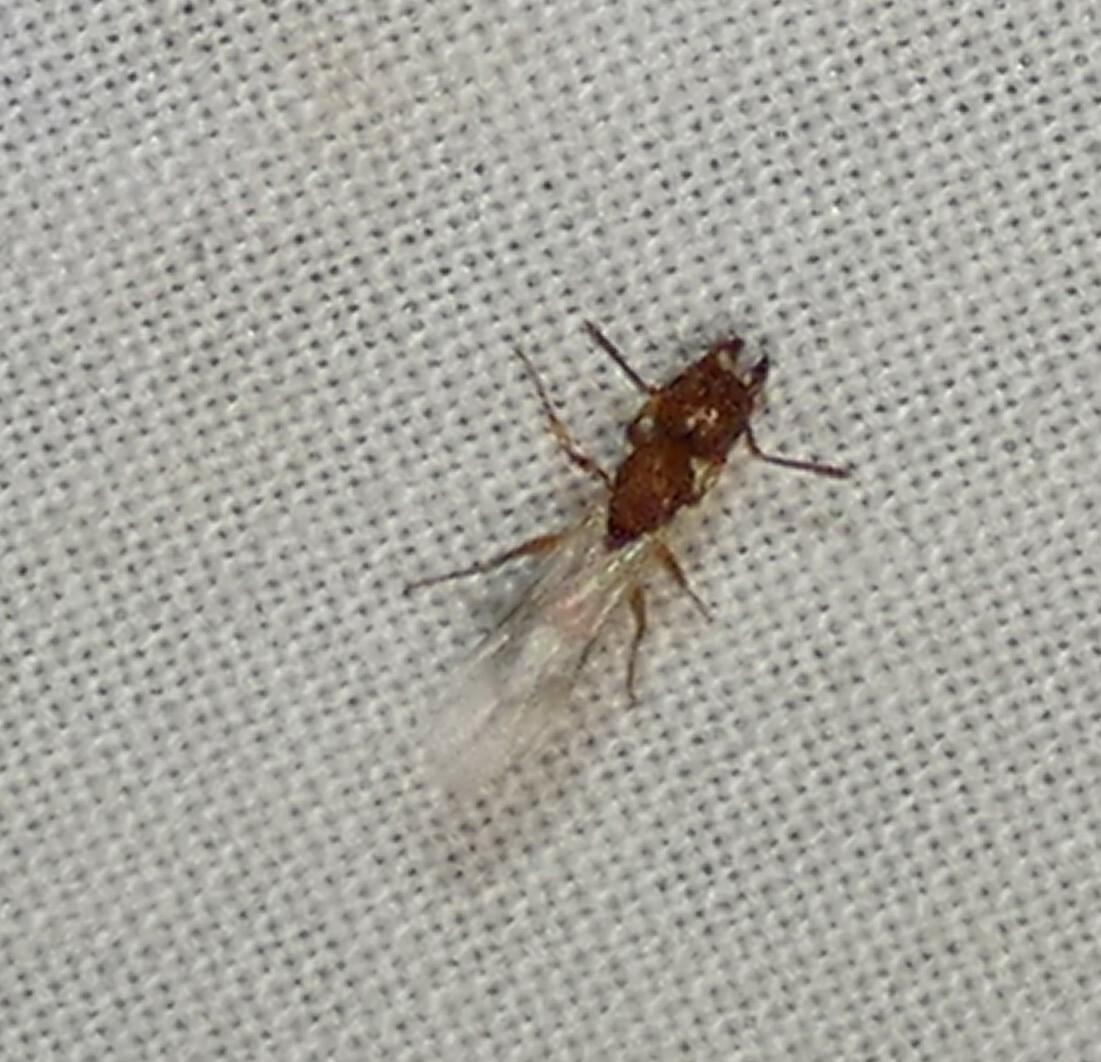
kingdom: Animalia
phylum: Arthropoda
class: Insecta
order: Hymenoptera
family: Formicidae
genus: Tetramorium
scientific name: Tetramorium bicarinatum
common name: Guinea ant
